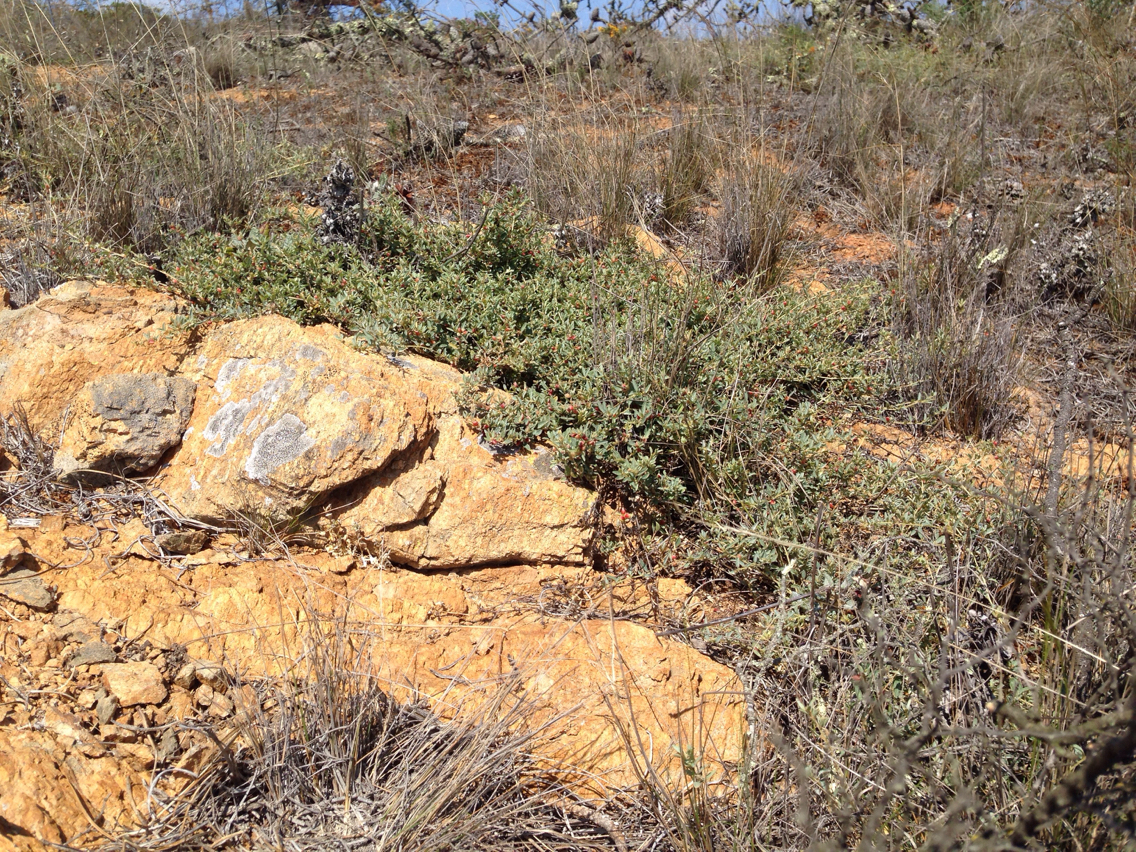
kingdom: Plantae
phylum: Tracheophyta
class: Magnoliopsida
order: Caryophyllales
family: Amaranthaceae
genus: Atriplex
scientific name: Atriplex semibaccata
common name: Australian saltbush
